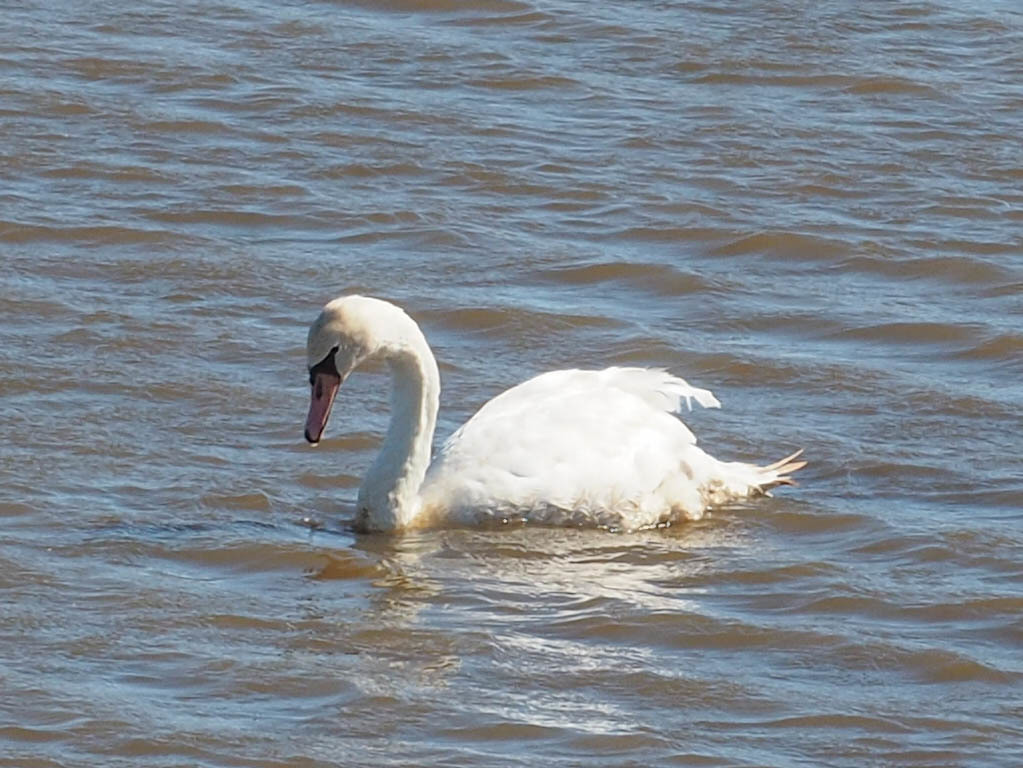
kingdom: Animalia
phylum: Chordata
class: Aves
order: Anseriformes
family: Anatidae
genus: Cygnus
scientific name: Cygnus olor
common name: Mute swan
